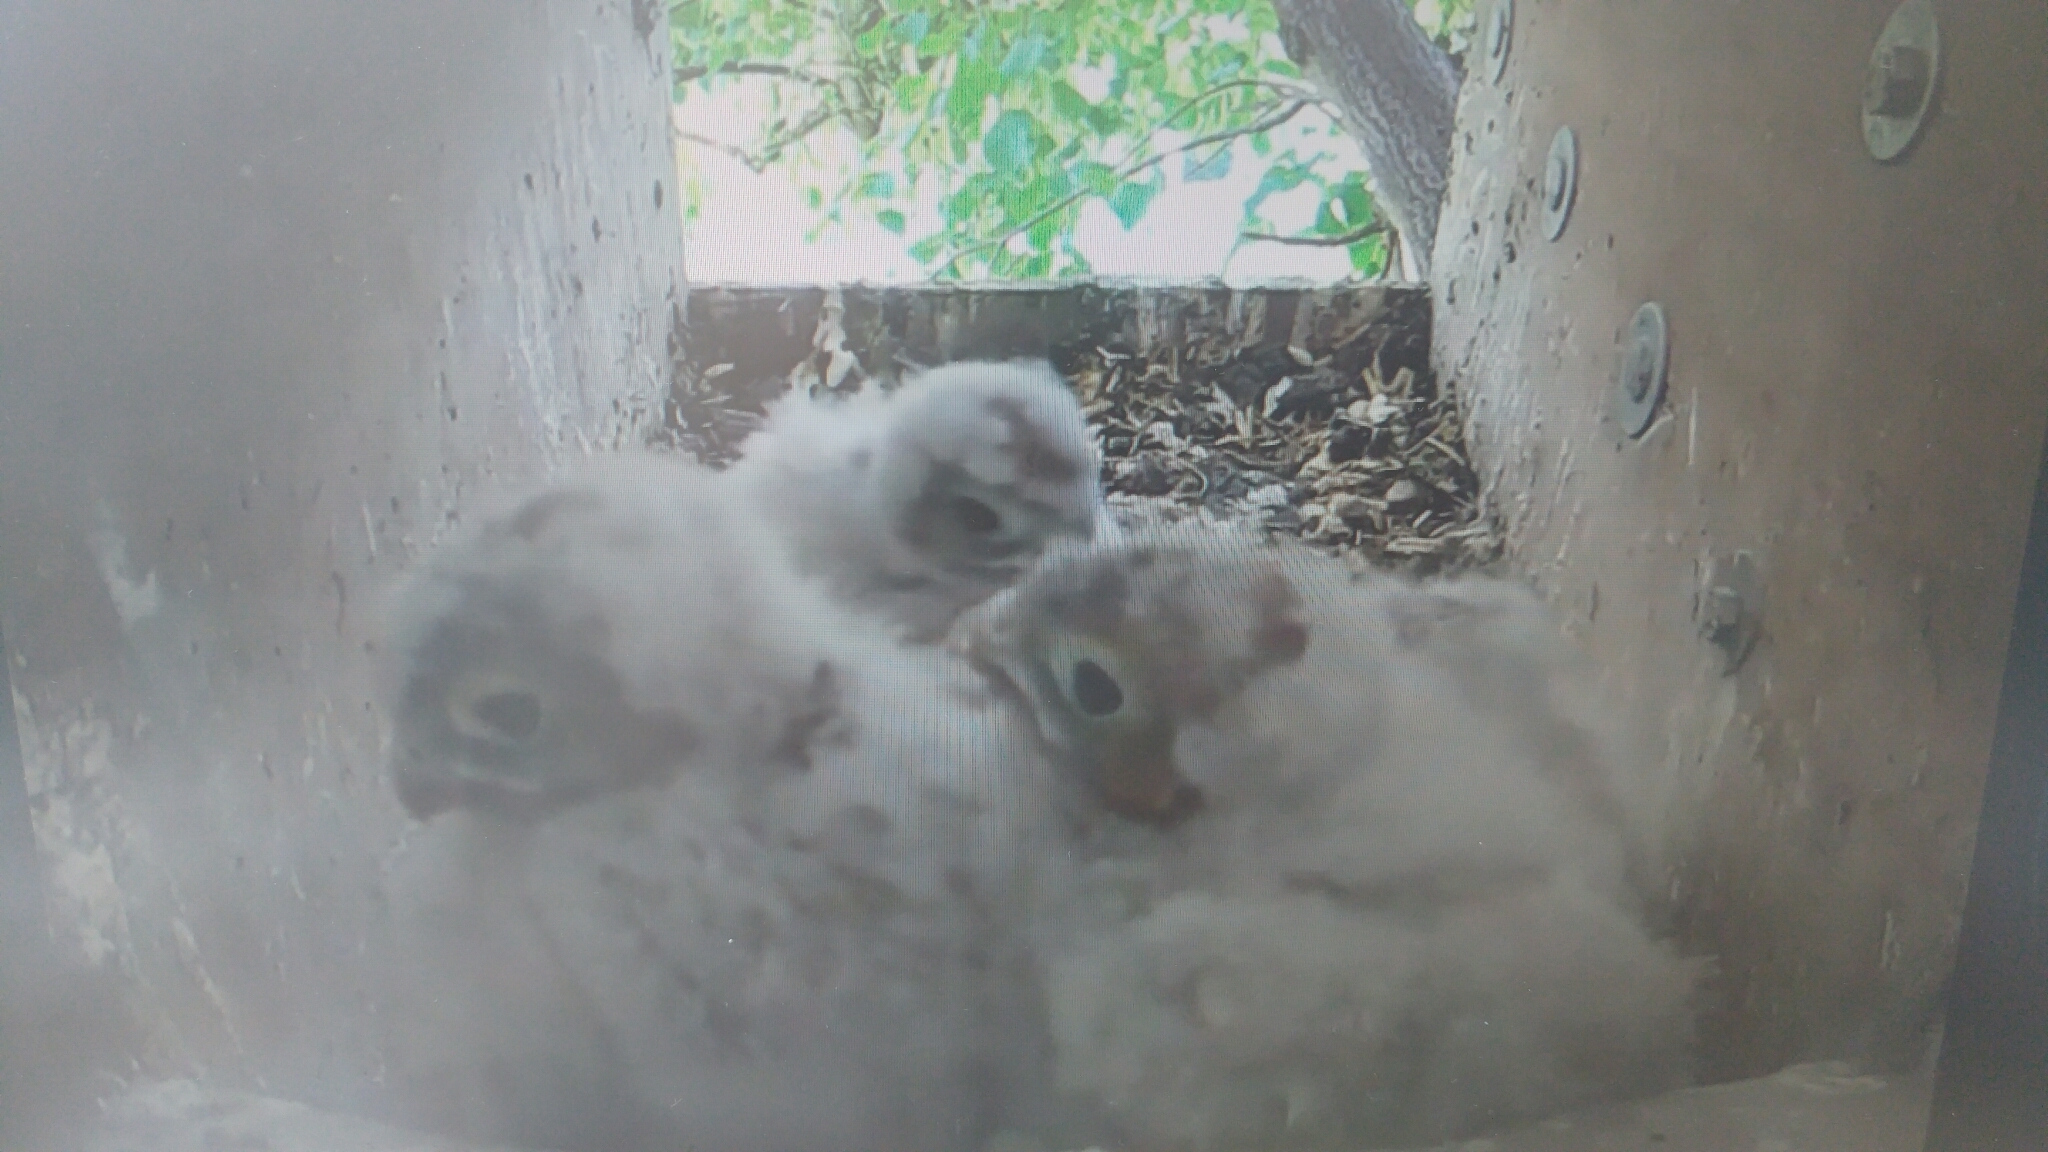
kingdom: Animalia
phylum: Chordata
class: Aves
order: Falconiformes
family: Falconidae
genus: Falco
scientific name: Falco tinnunculus
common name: Common kestrel
